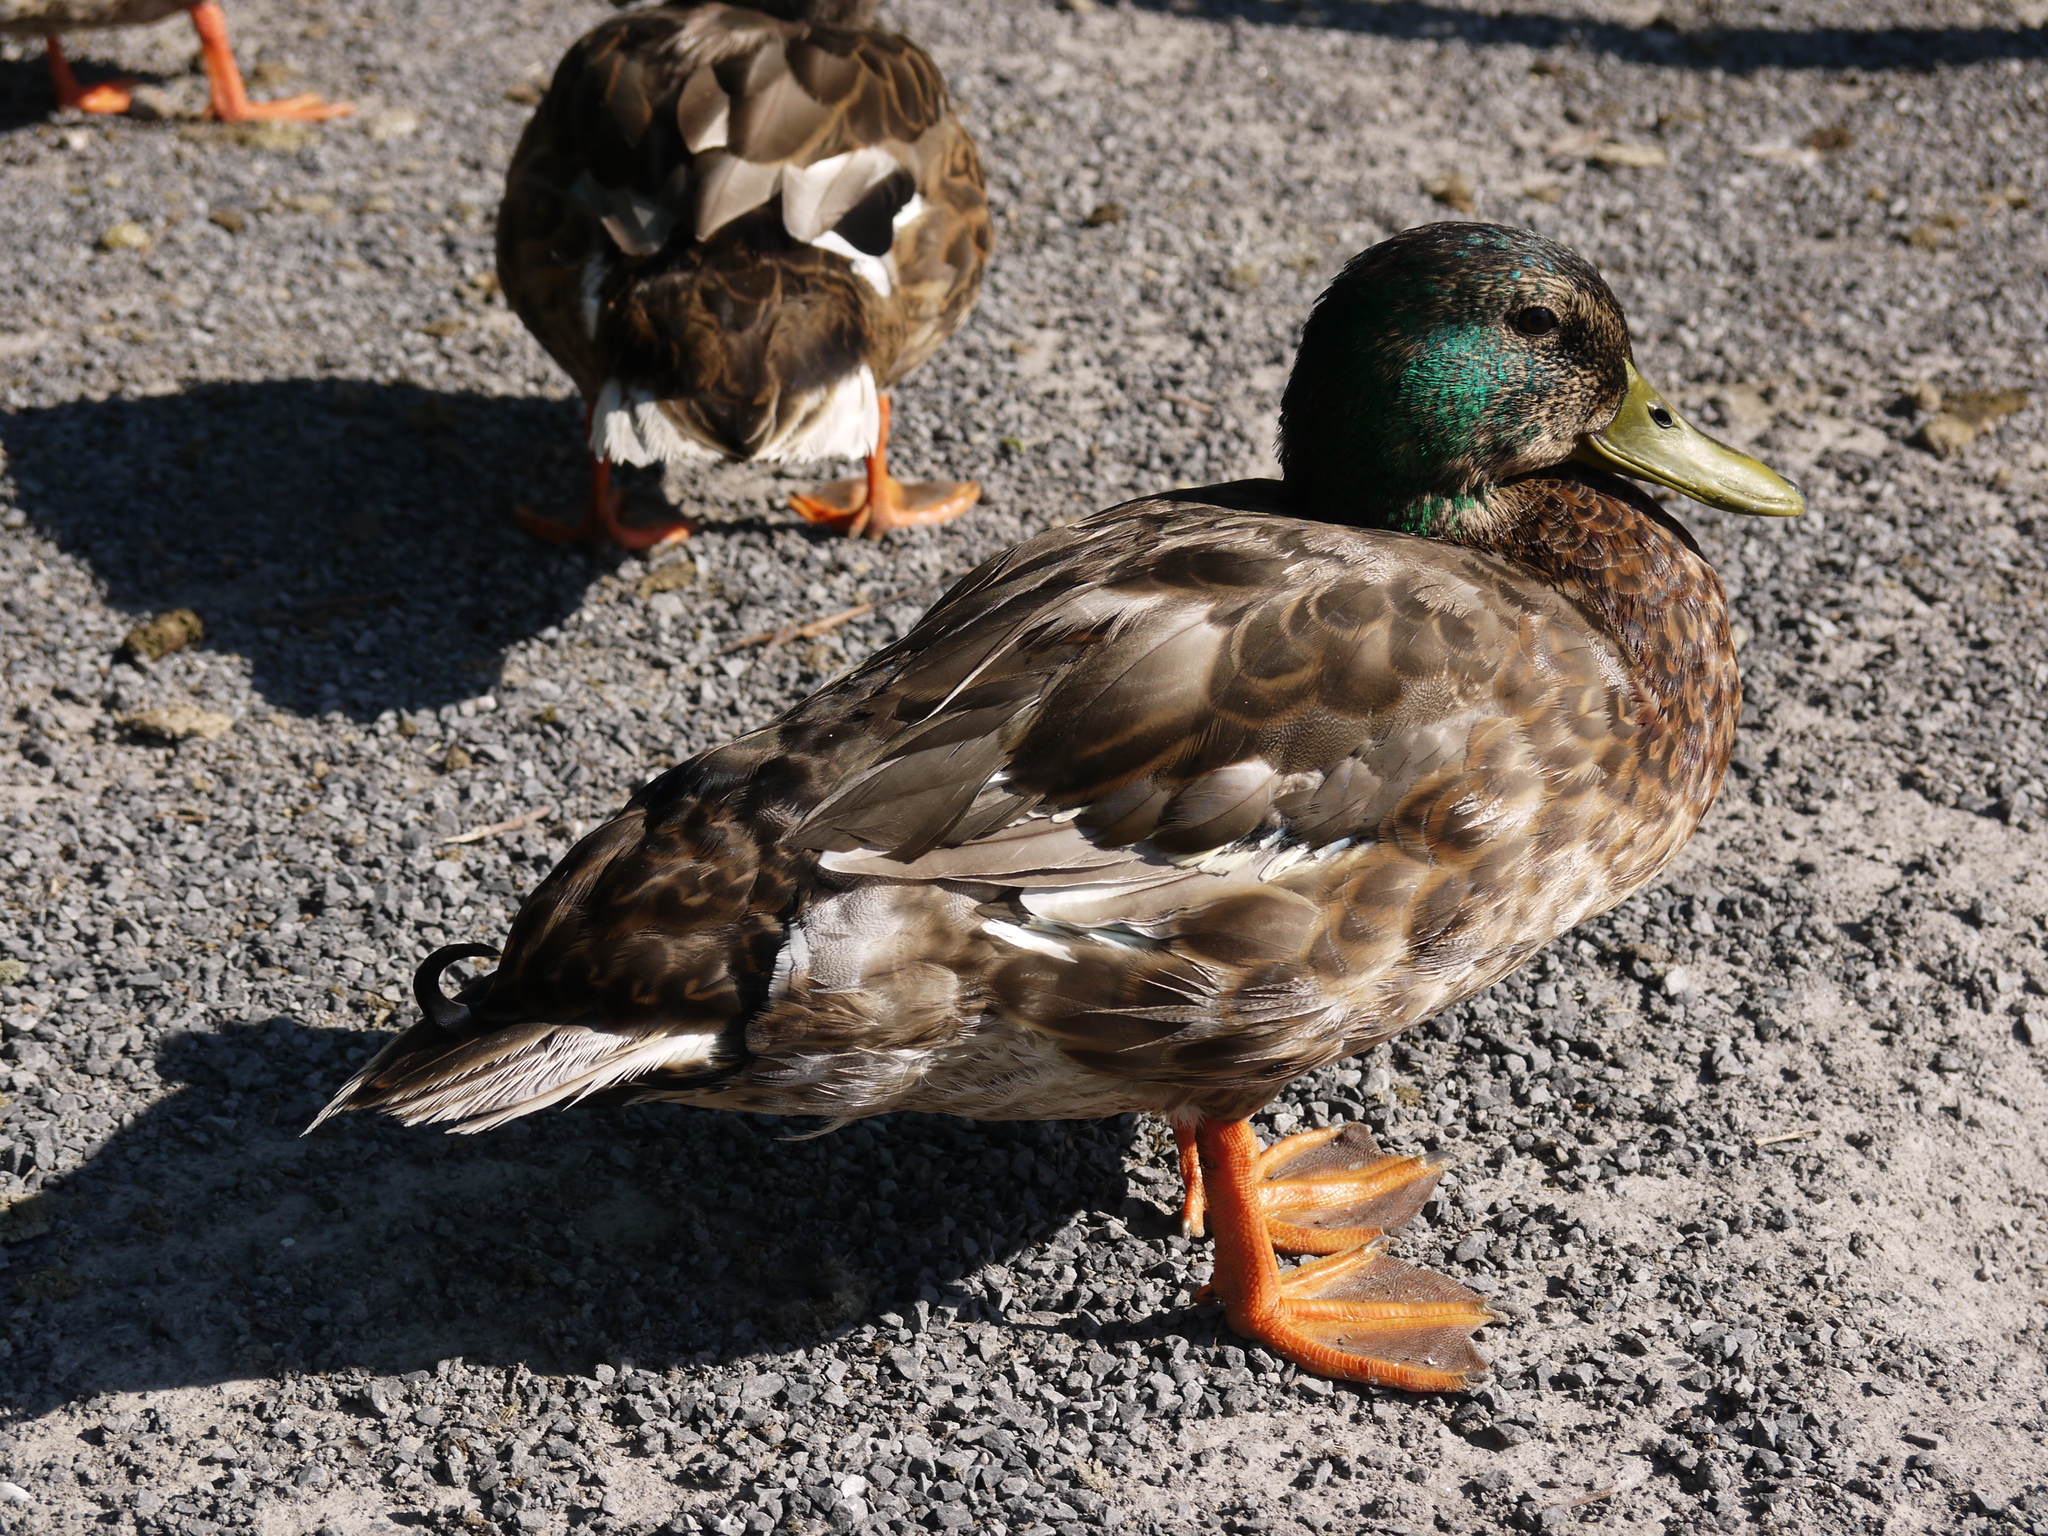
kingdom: Animalia
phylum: Chordata
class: Aves
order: Anseriformes
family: Anatidae
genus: Anas
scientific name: Anas platyrhynchos
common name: Mallard
